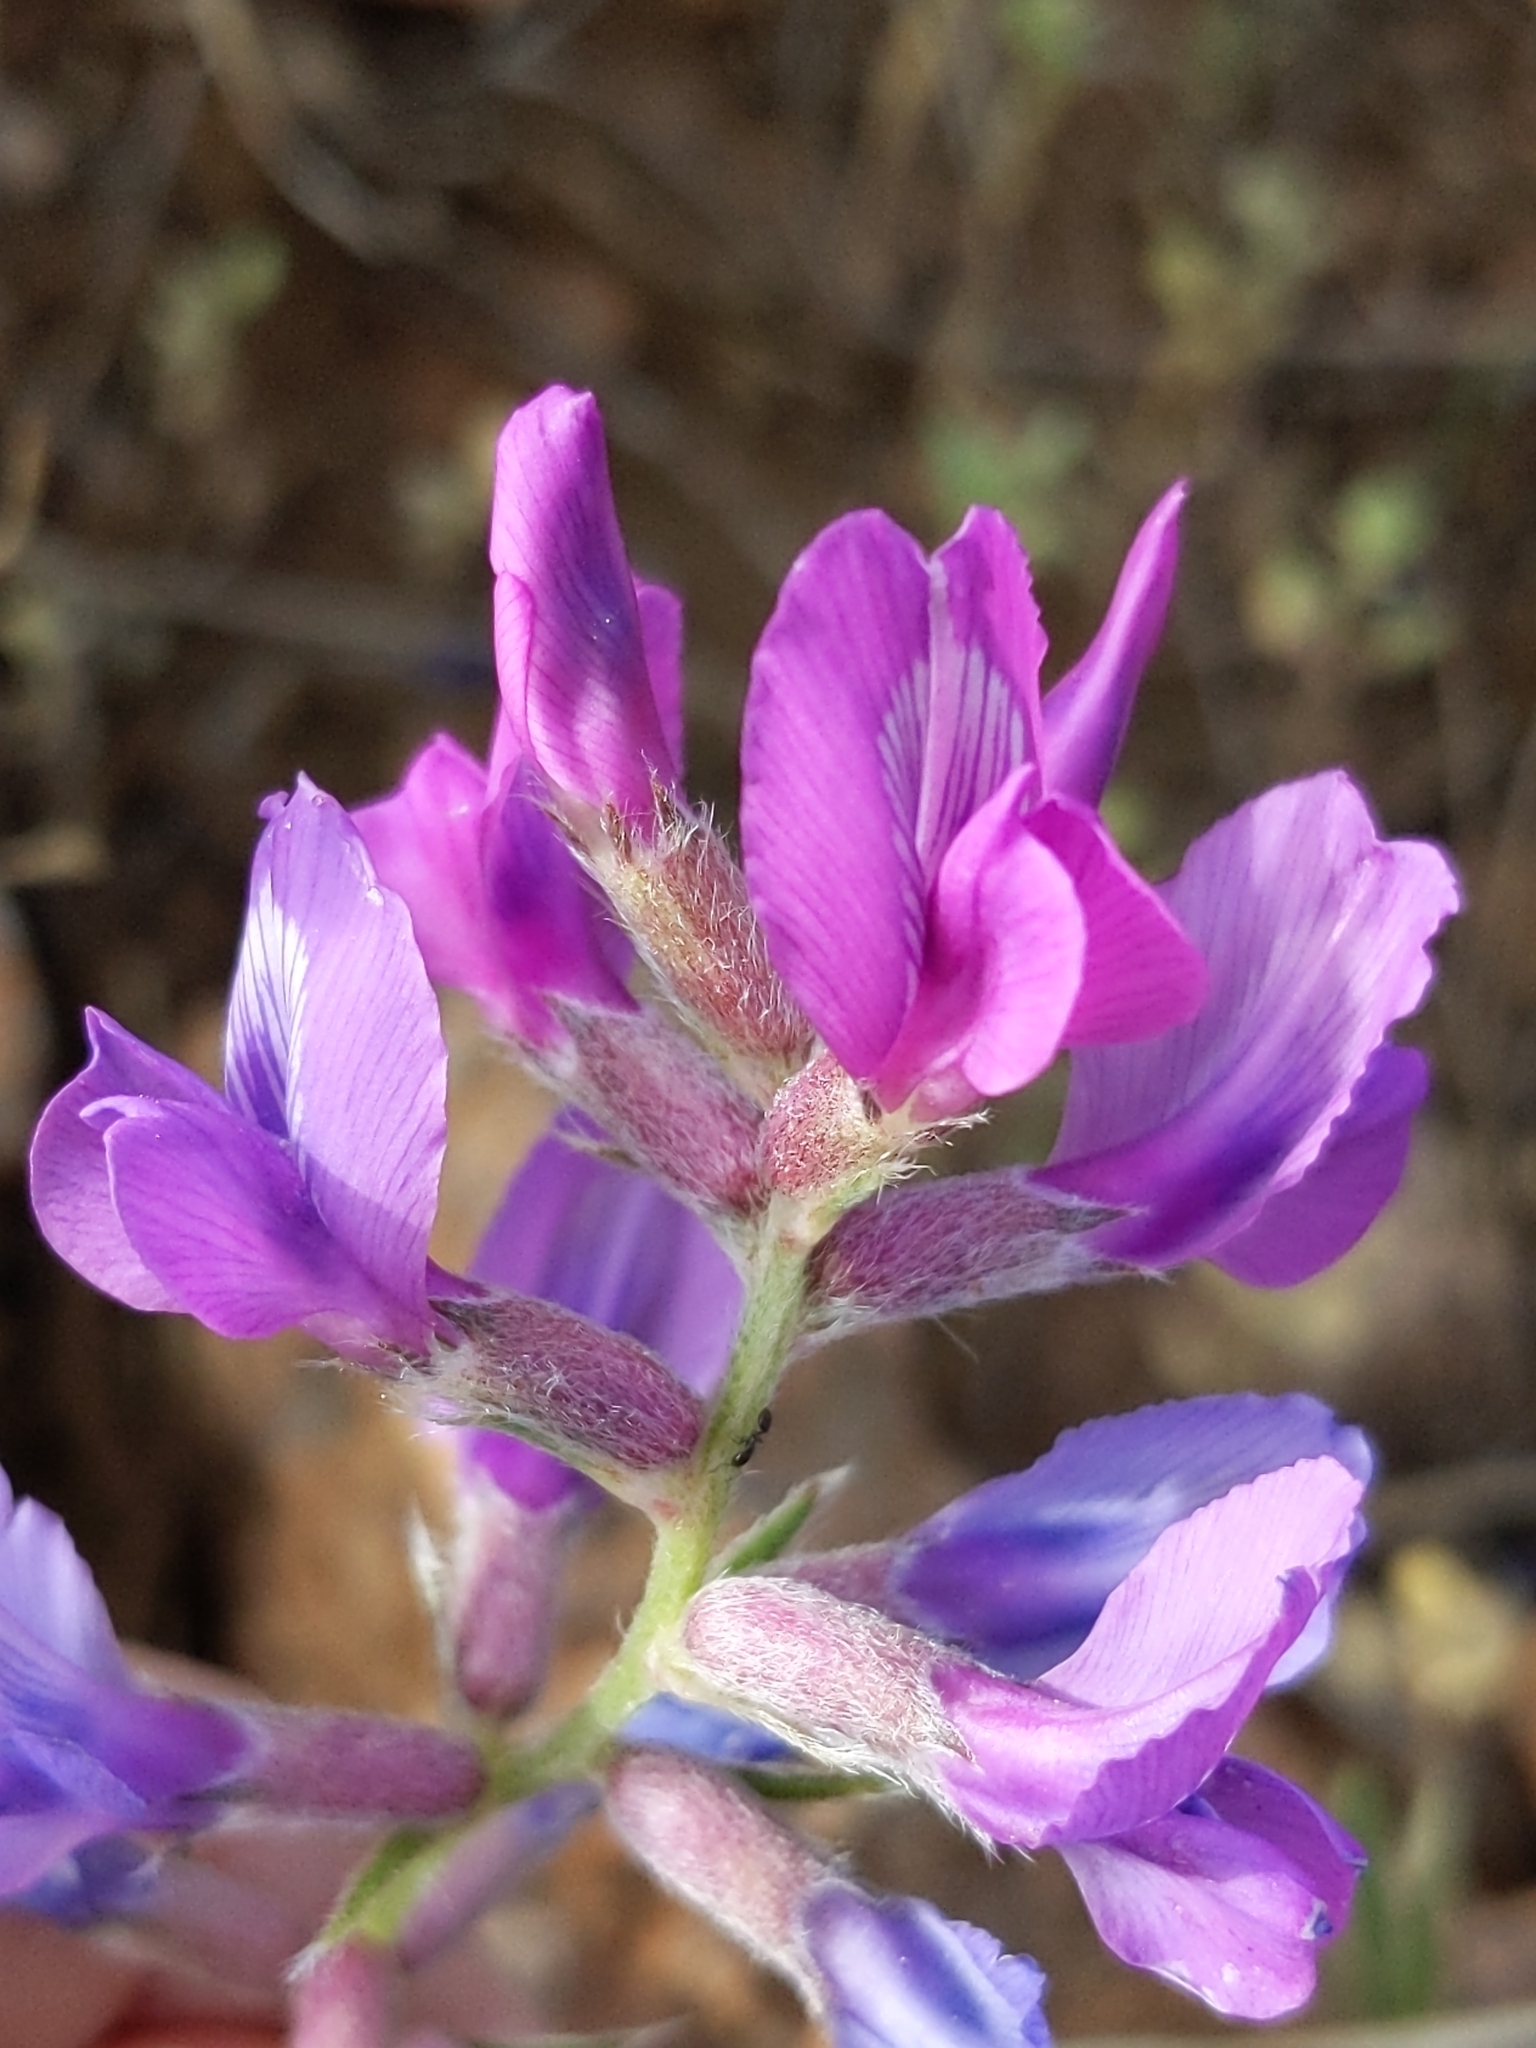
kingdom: Plantae
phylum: Tracheophyta
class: Magnoliopsida
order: Fabales
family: Fabaceae
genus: Oxytropis
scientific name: Oxytropis lambertii
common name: Purple locoweed
